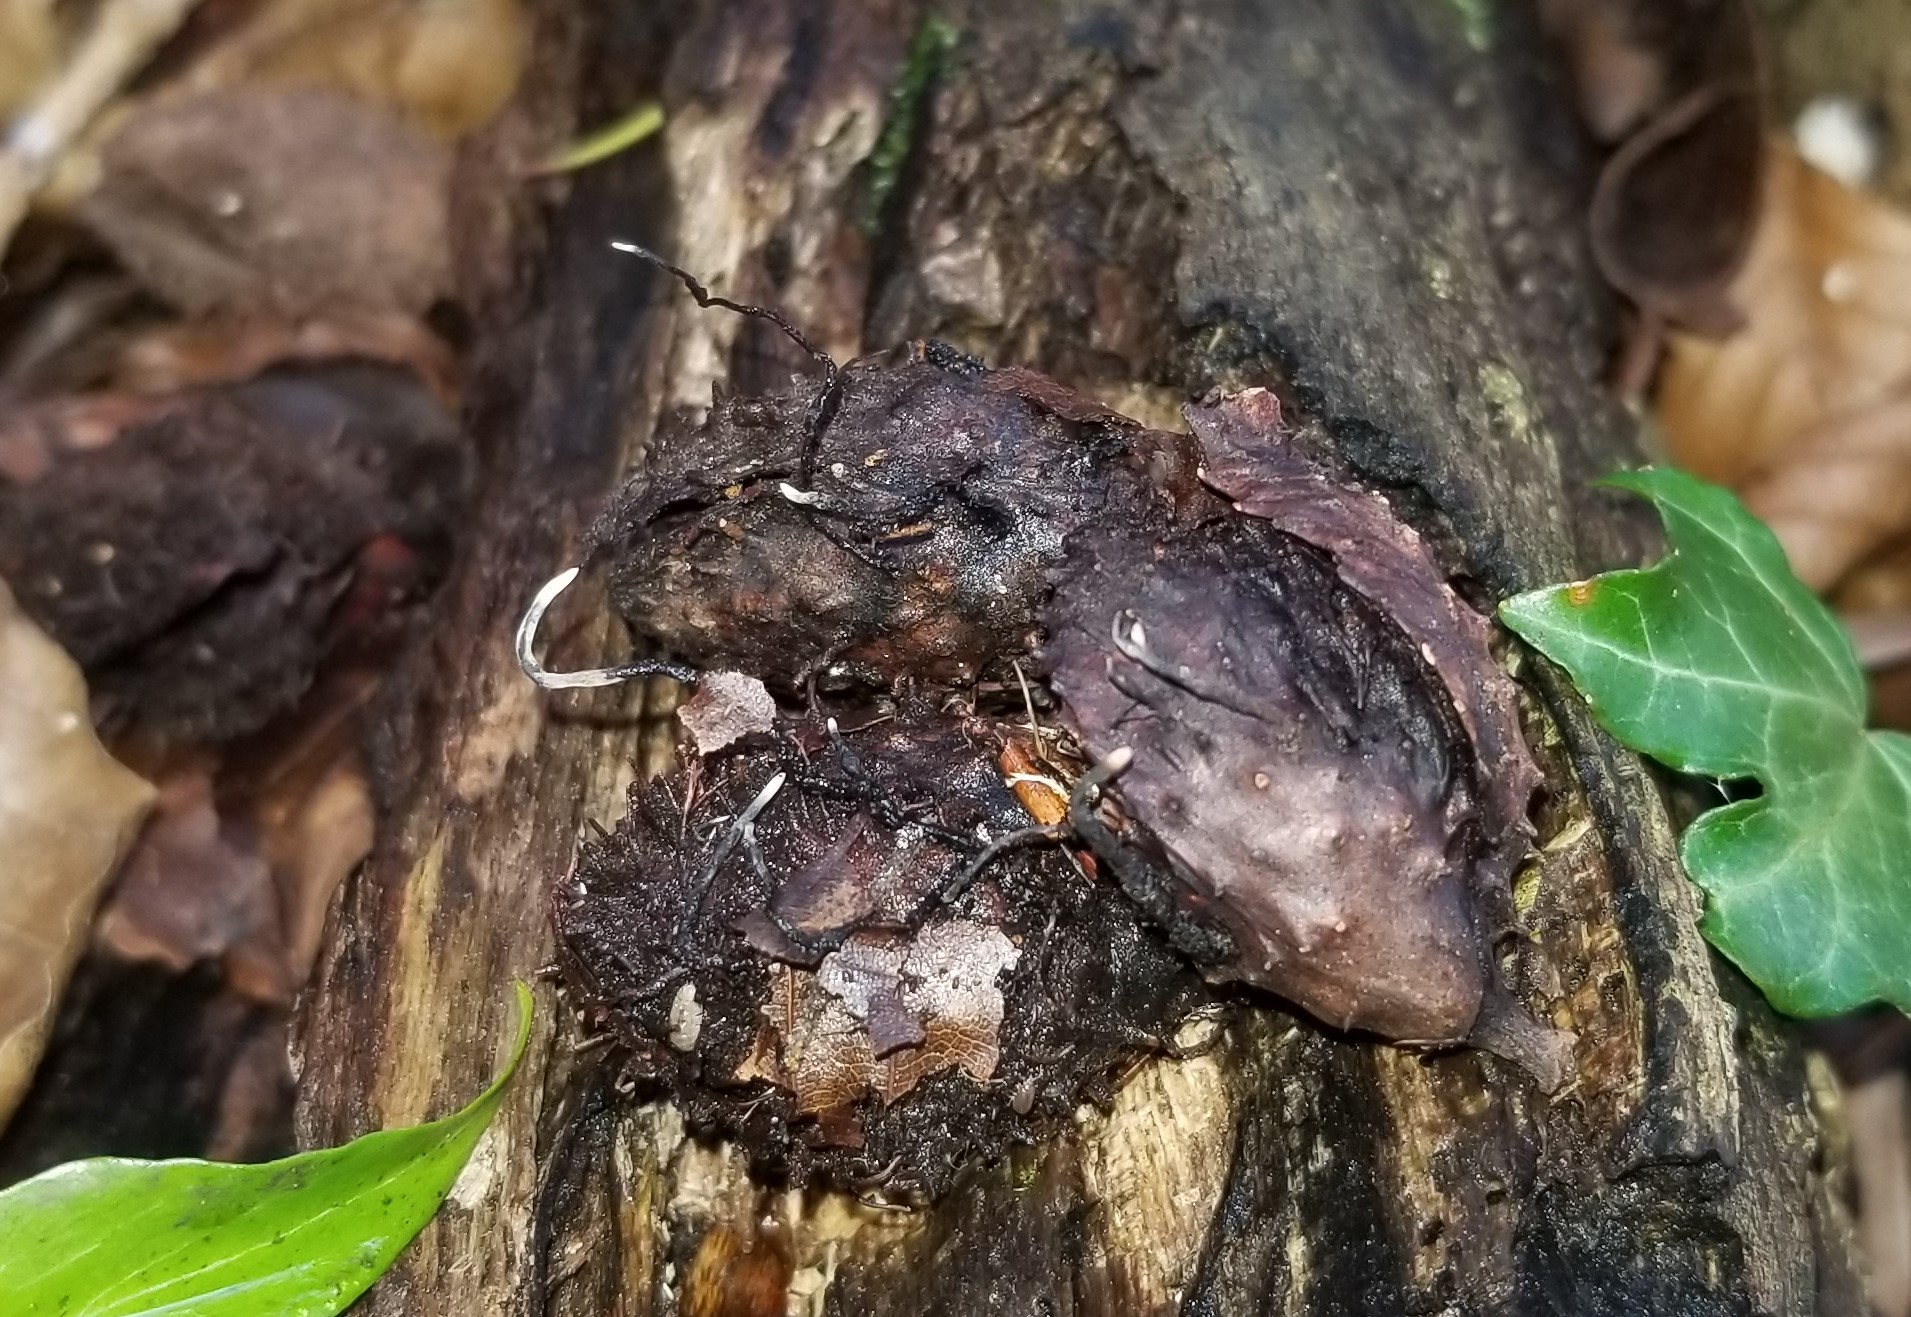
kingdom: Fungi
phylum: Ascomycota
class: Sordariomycetes
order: Xylariales
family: Xylariaceae
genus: Xylaria
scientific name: Xylaria carpophila
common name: Beechmast candlesnuff
